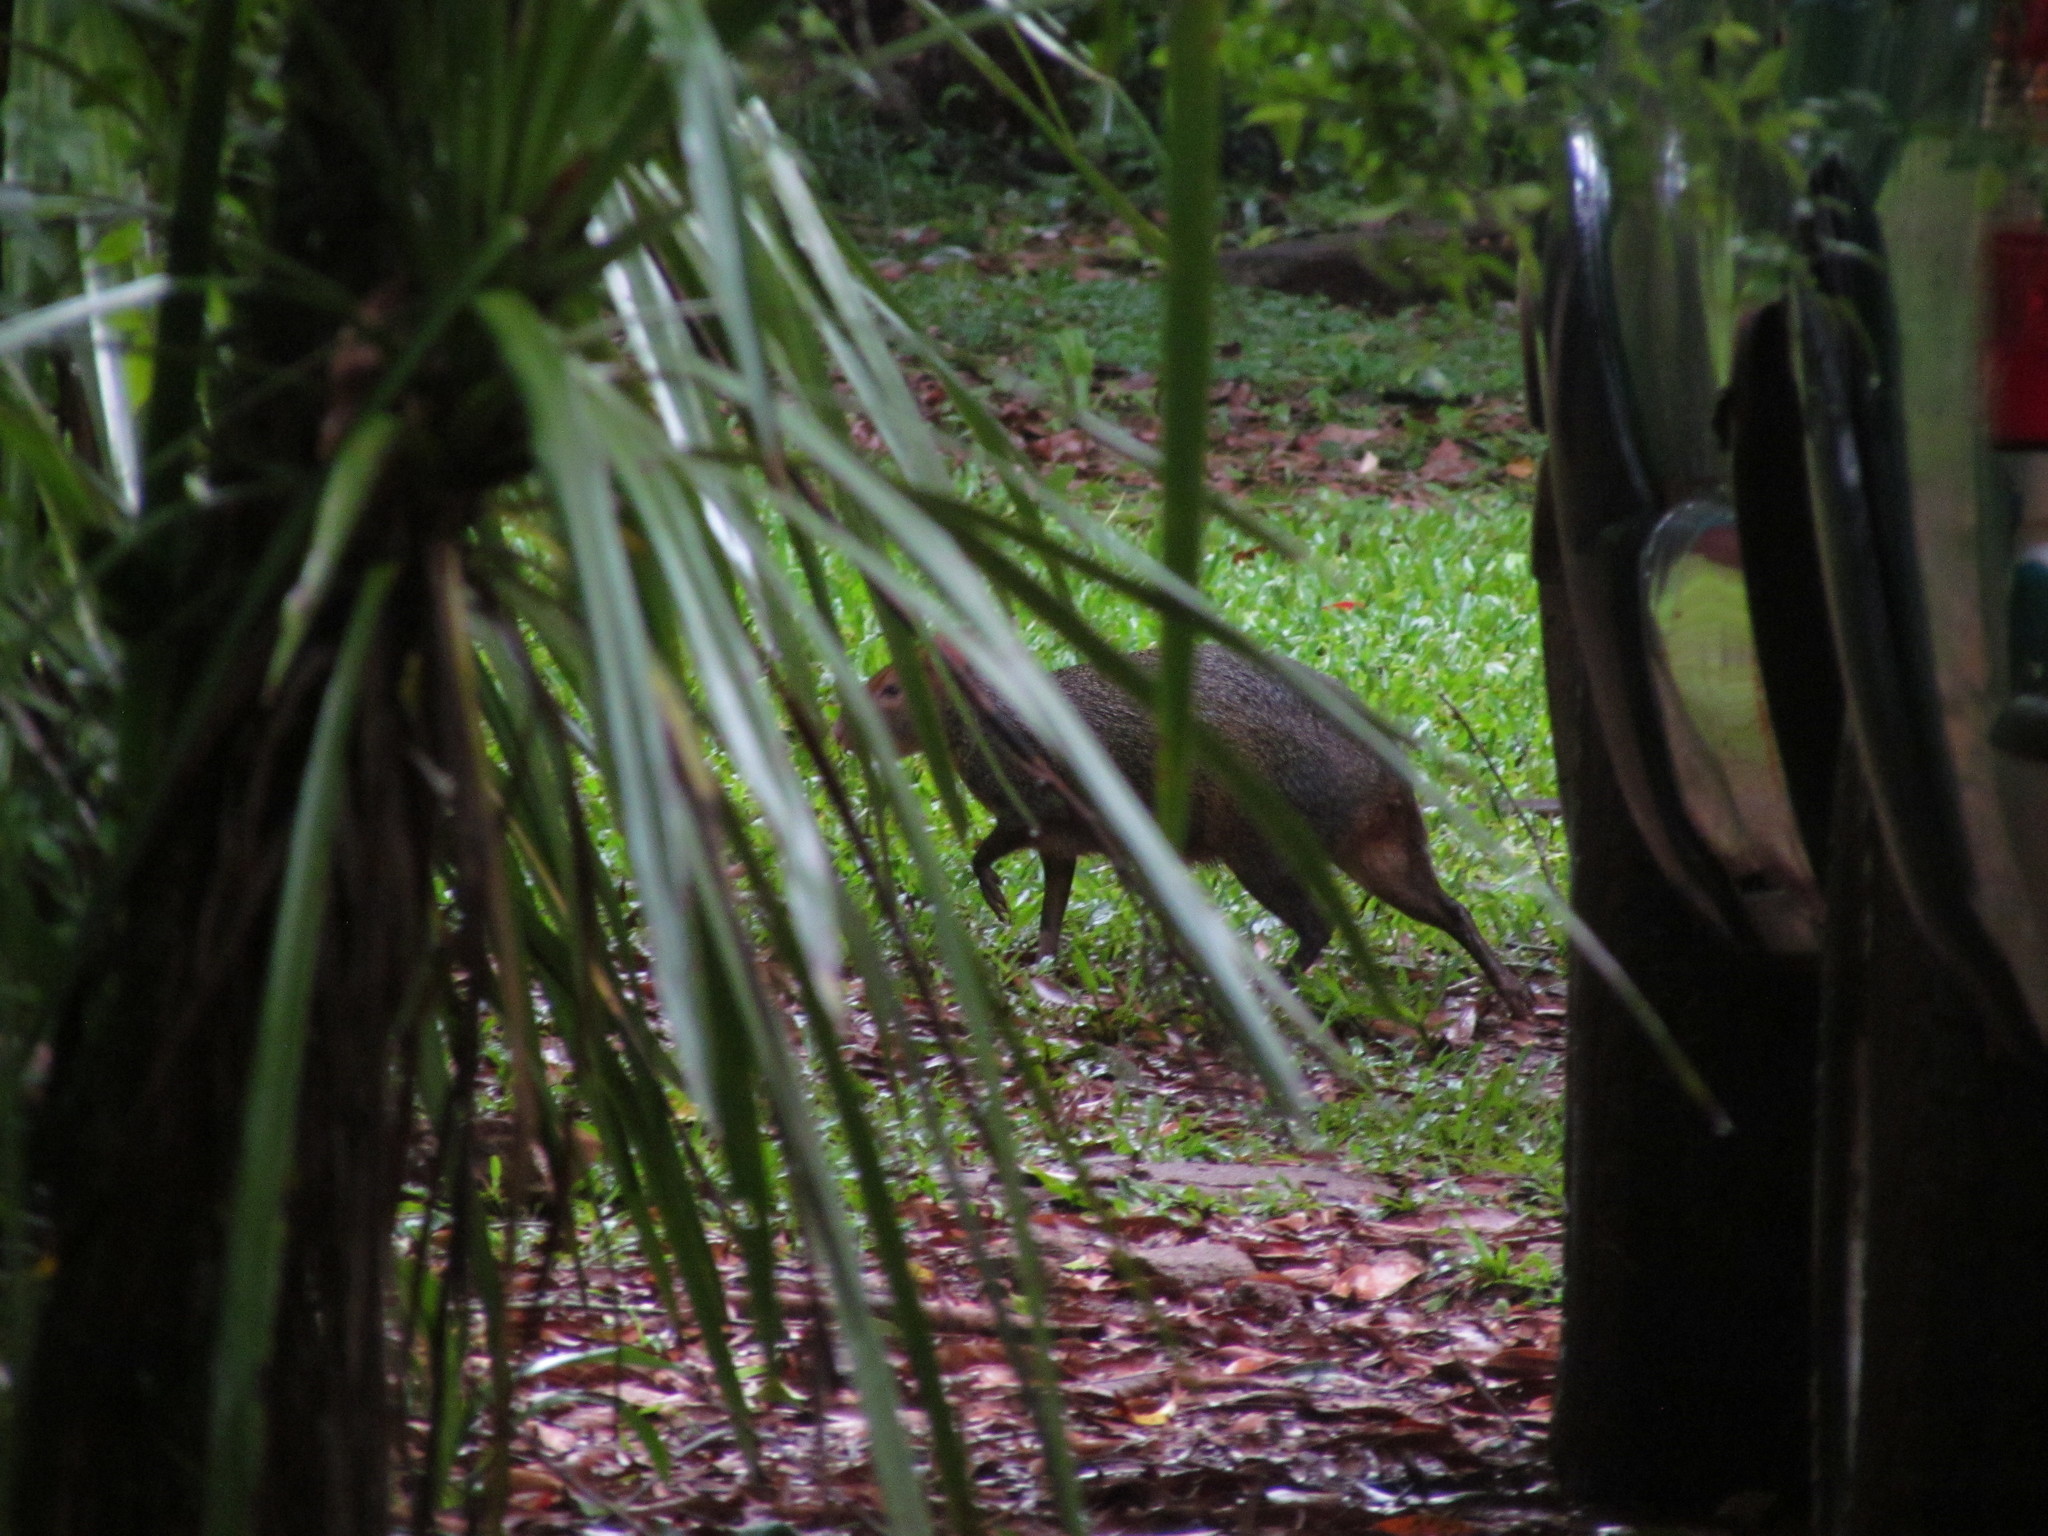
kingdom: Animalia
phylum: Chordata
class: Mammalia
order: Rodentia
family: Dasyproctidae
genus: Dasyprocta
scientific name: Dasyprocta azarae
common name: Azara's agouti
